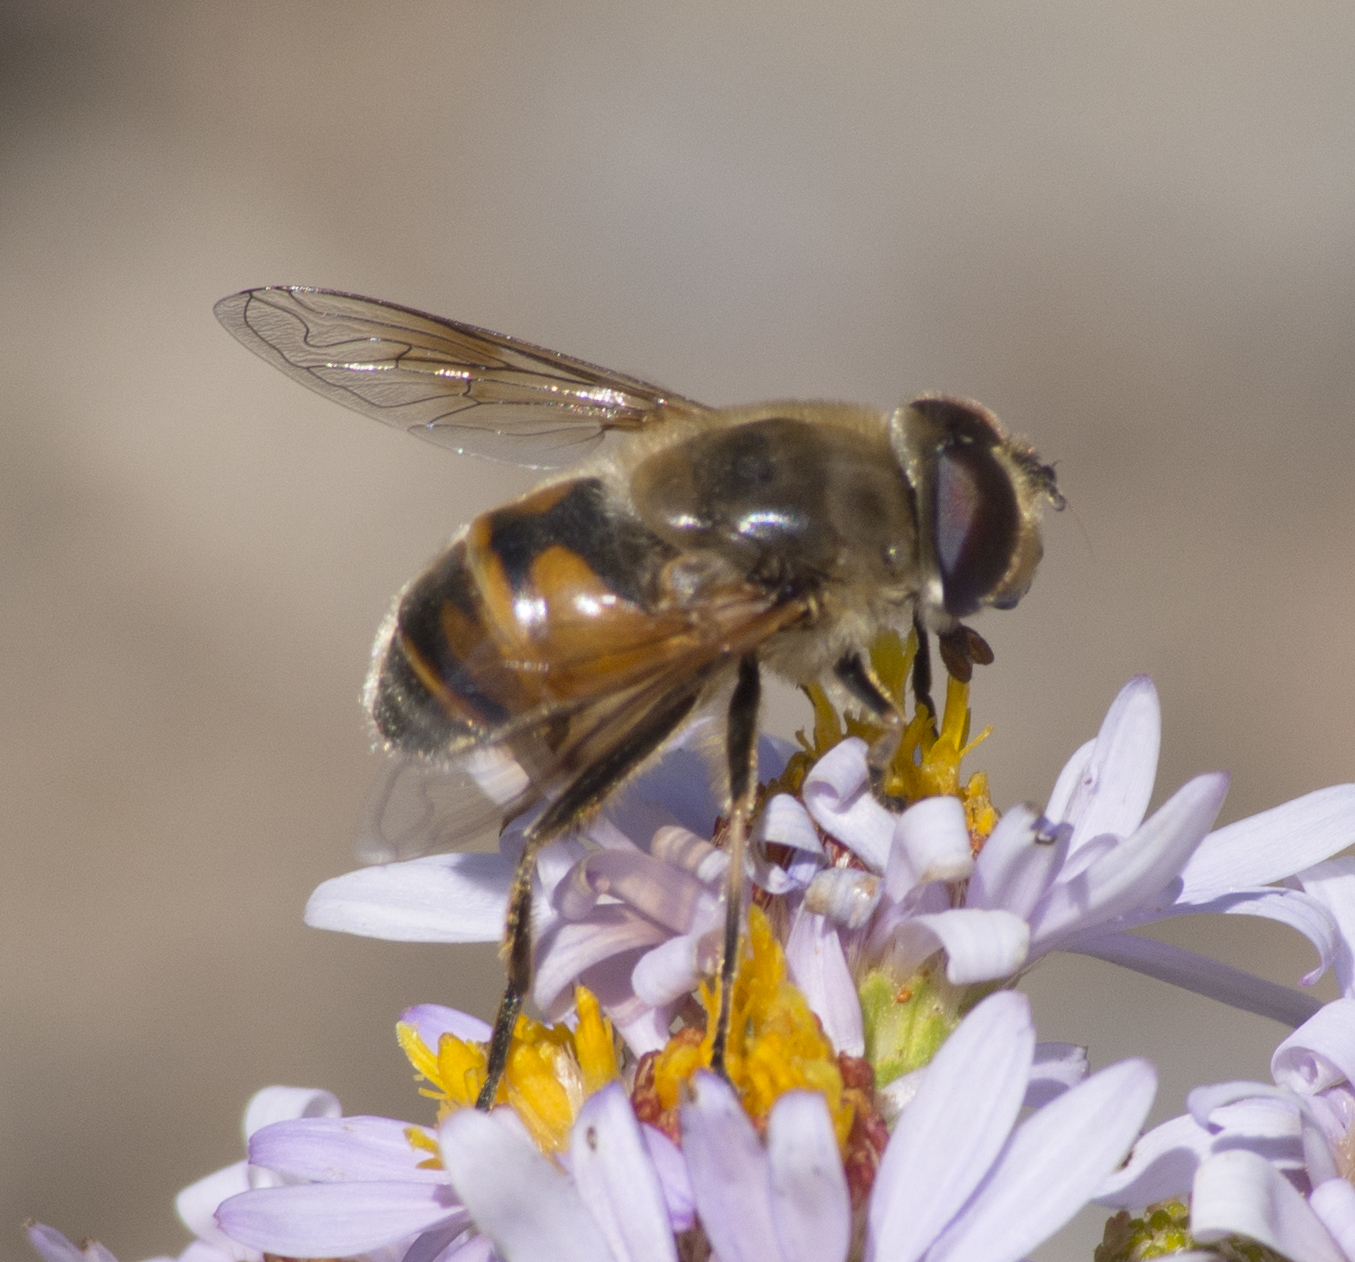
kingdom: Animalia
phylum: Arthropoda
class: Insecta
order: Diptera
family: Syrphidae
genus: Eristalis
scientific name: Eristalis tenax
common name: Drone fly
